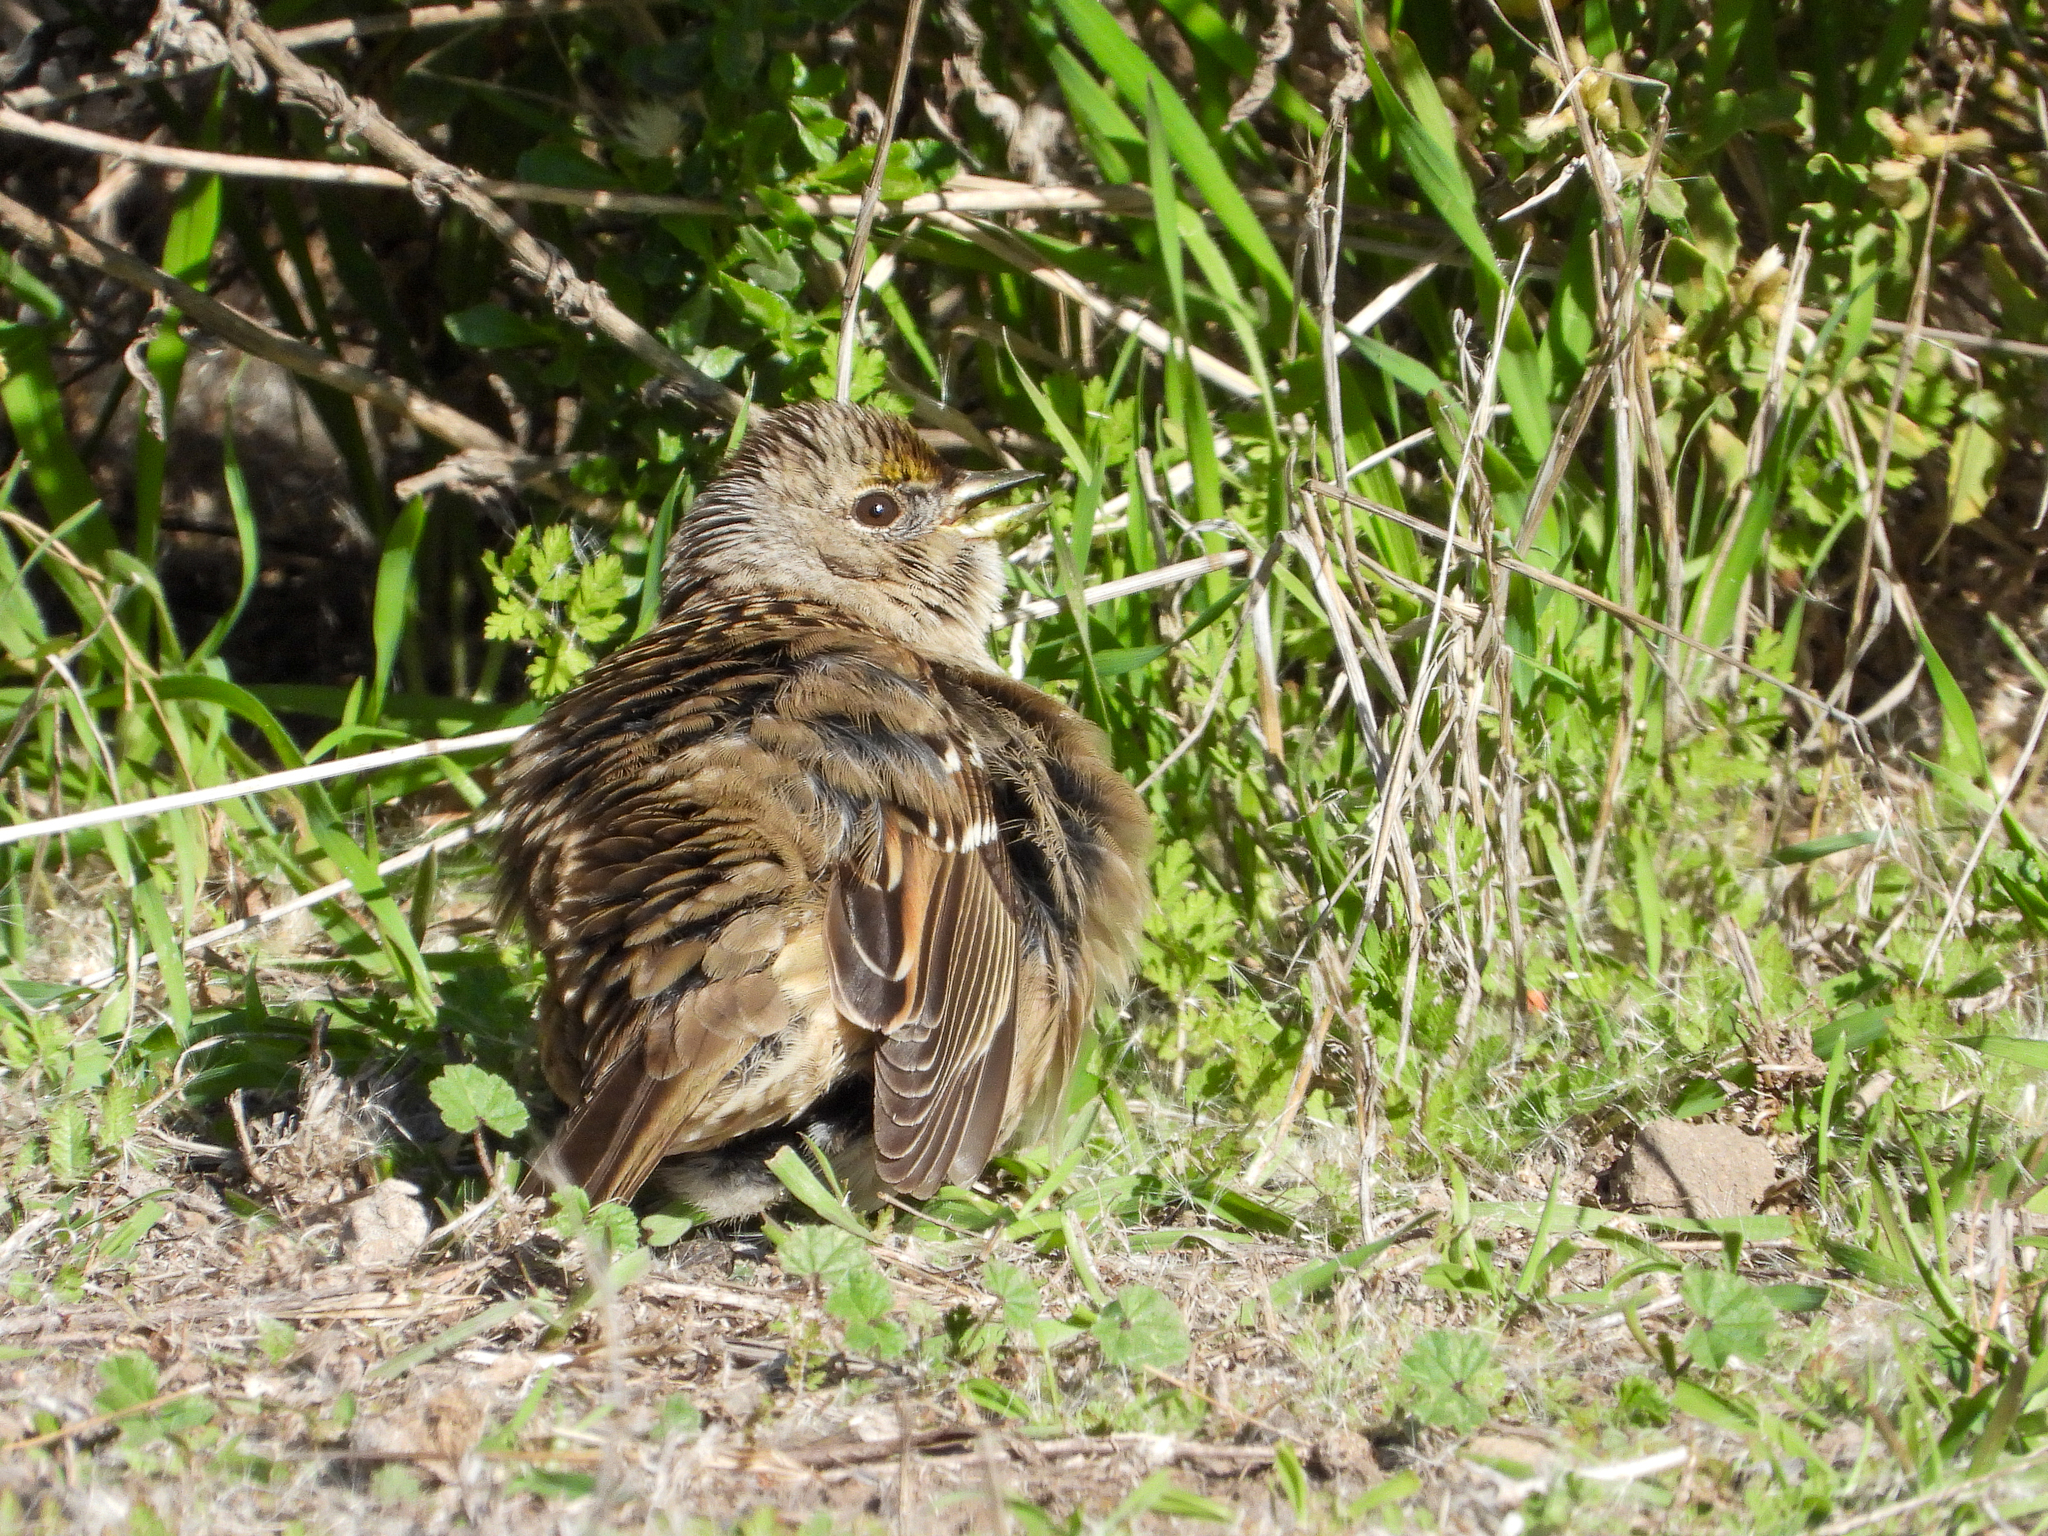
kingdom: Animalia
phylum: Chordata
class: Aves
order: Passeriformes
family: Passerellidae
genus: Zonotrichia
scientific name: Zonotrichia atricapilla
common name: Golden-crowned sparrow
